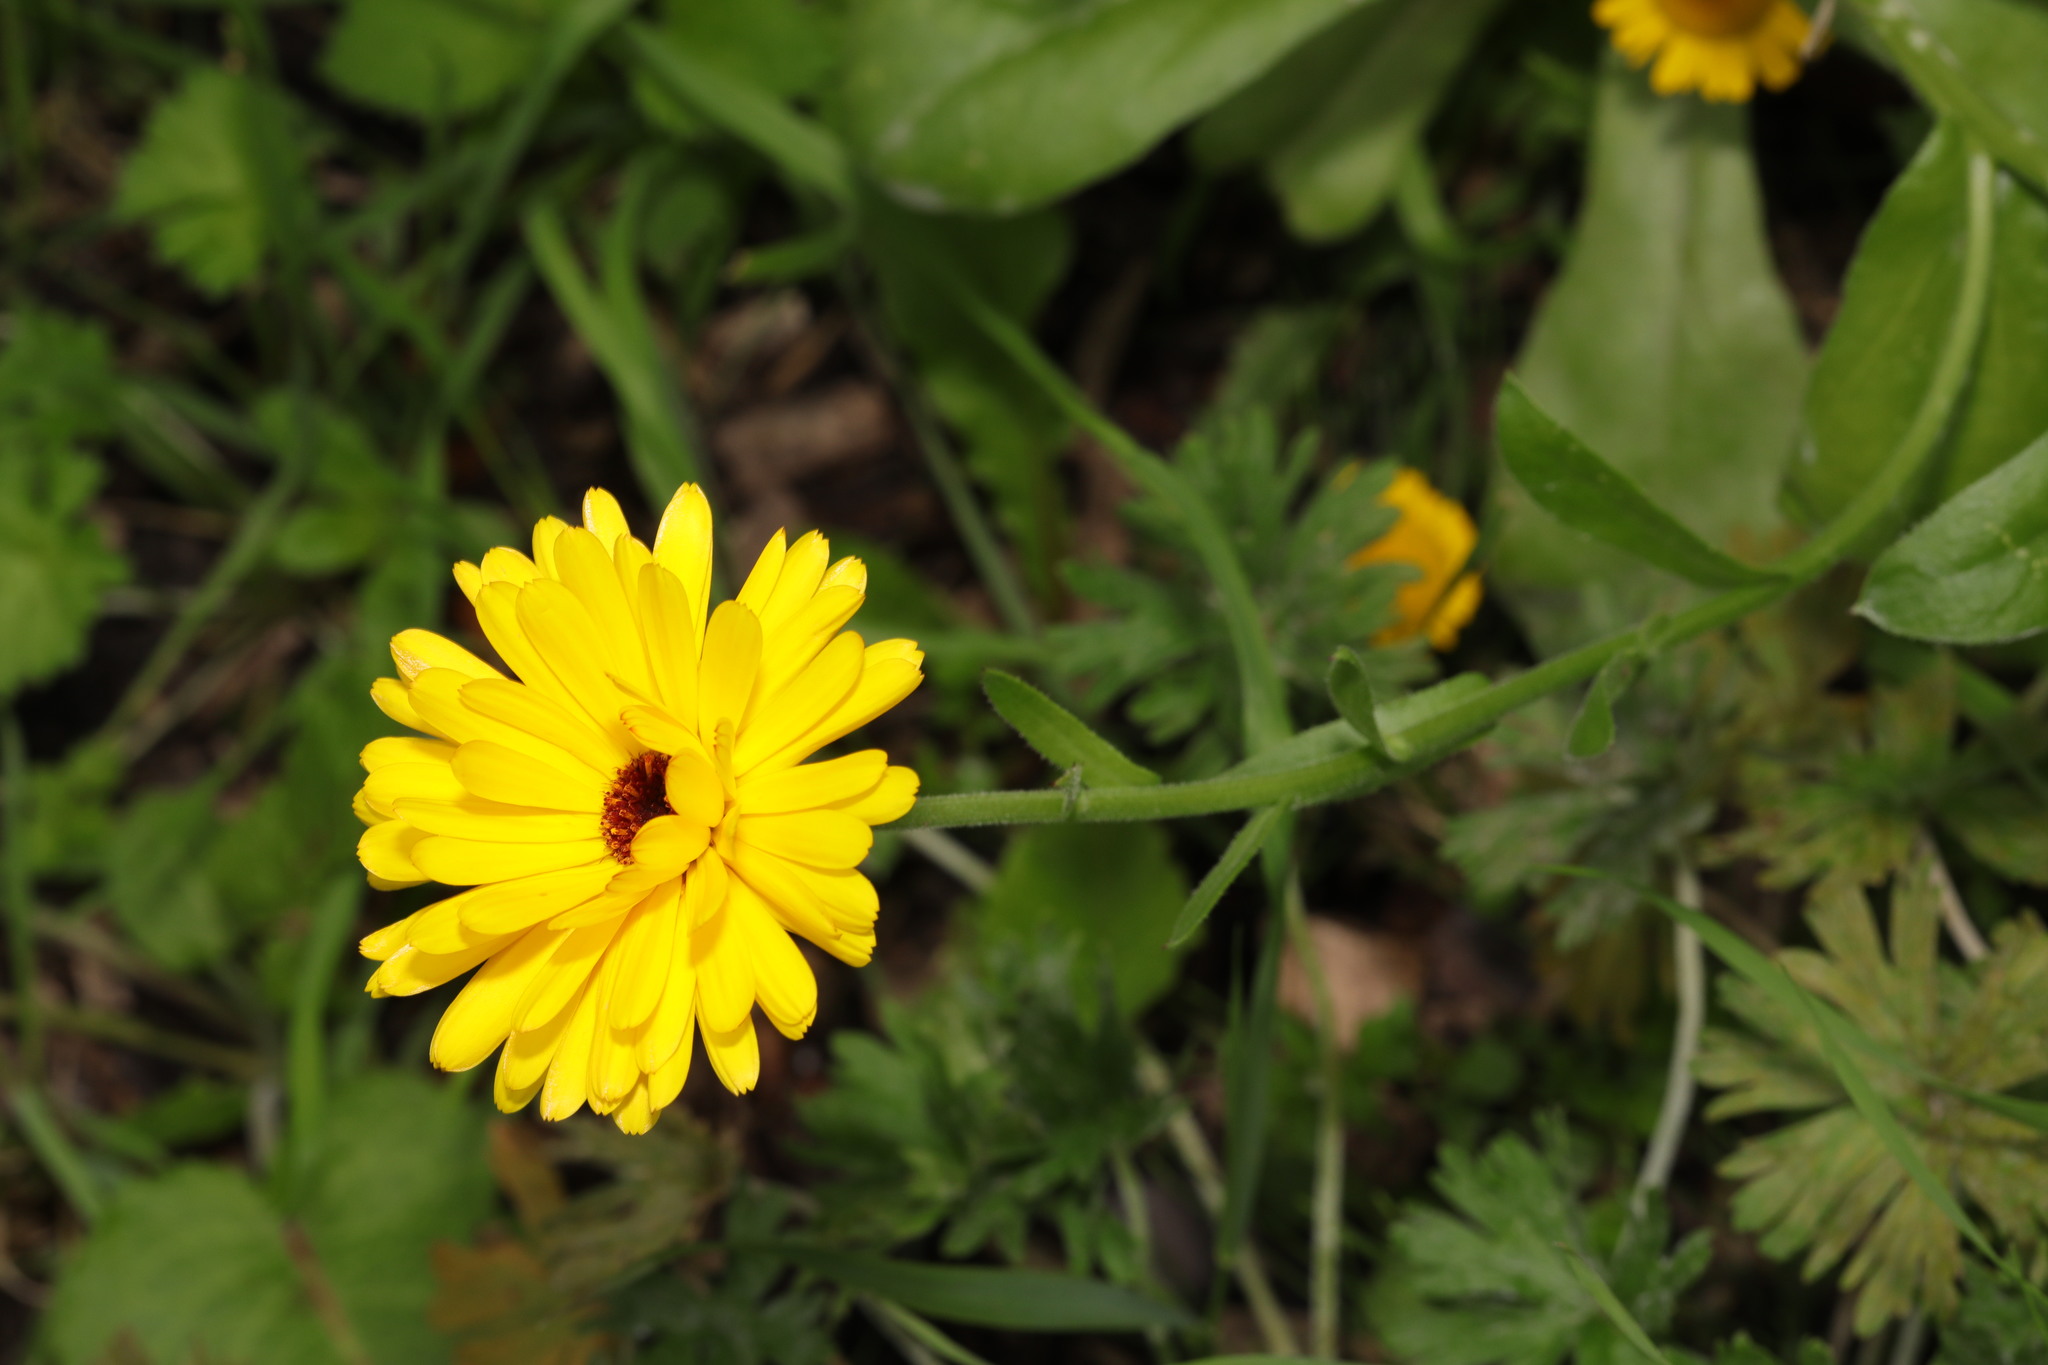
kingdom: Plantae
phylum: Tracheophyta
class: Magnoliopsida
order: Asterales
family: Asteraceae
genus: Calendula
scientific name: Calendula officinalis
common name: Pot marigold
